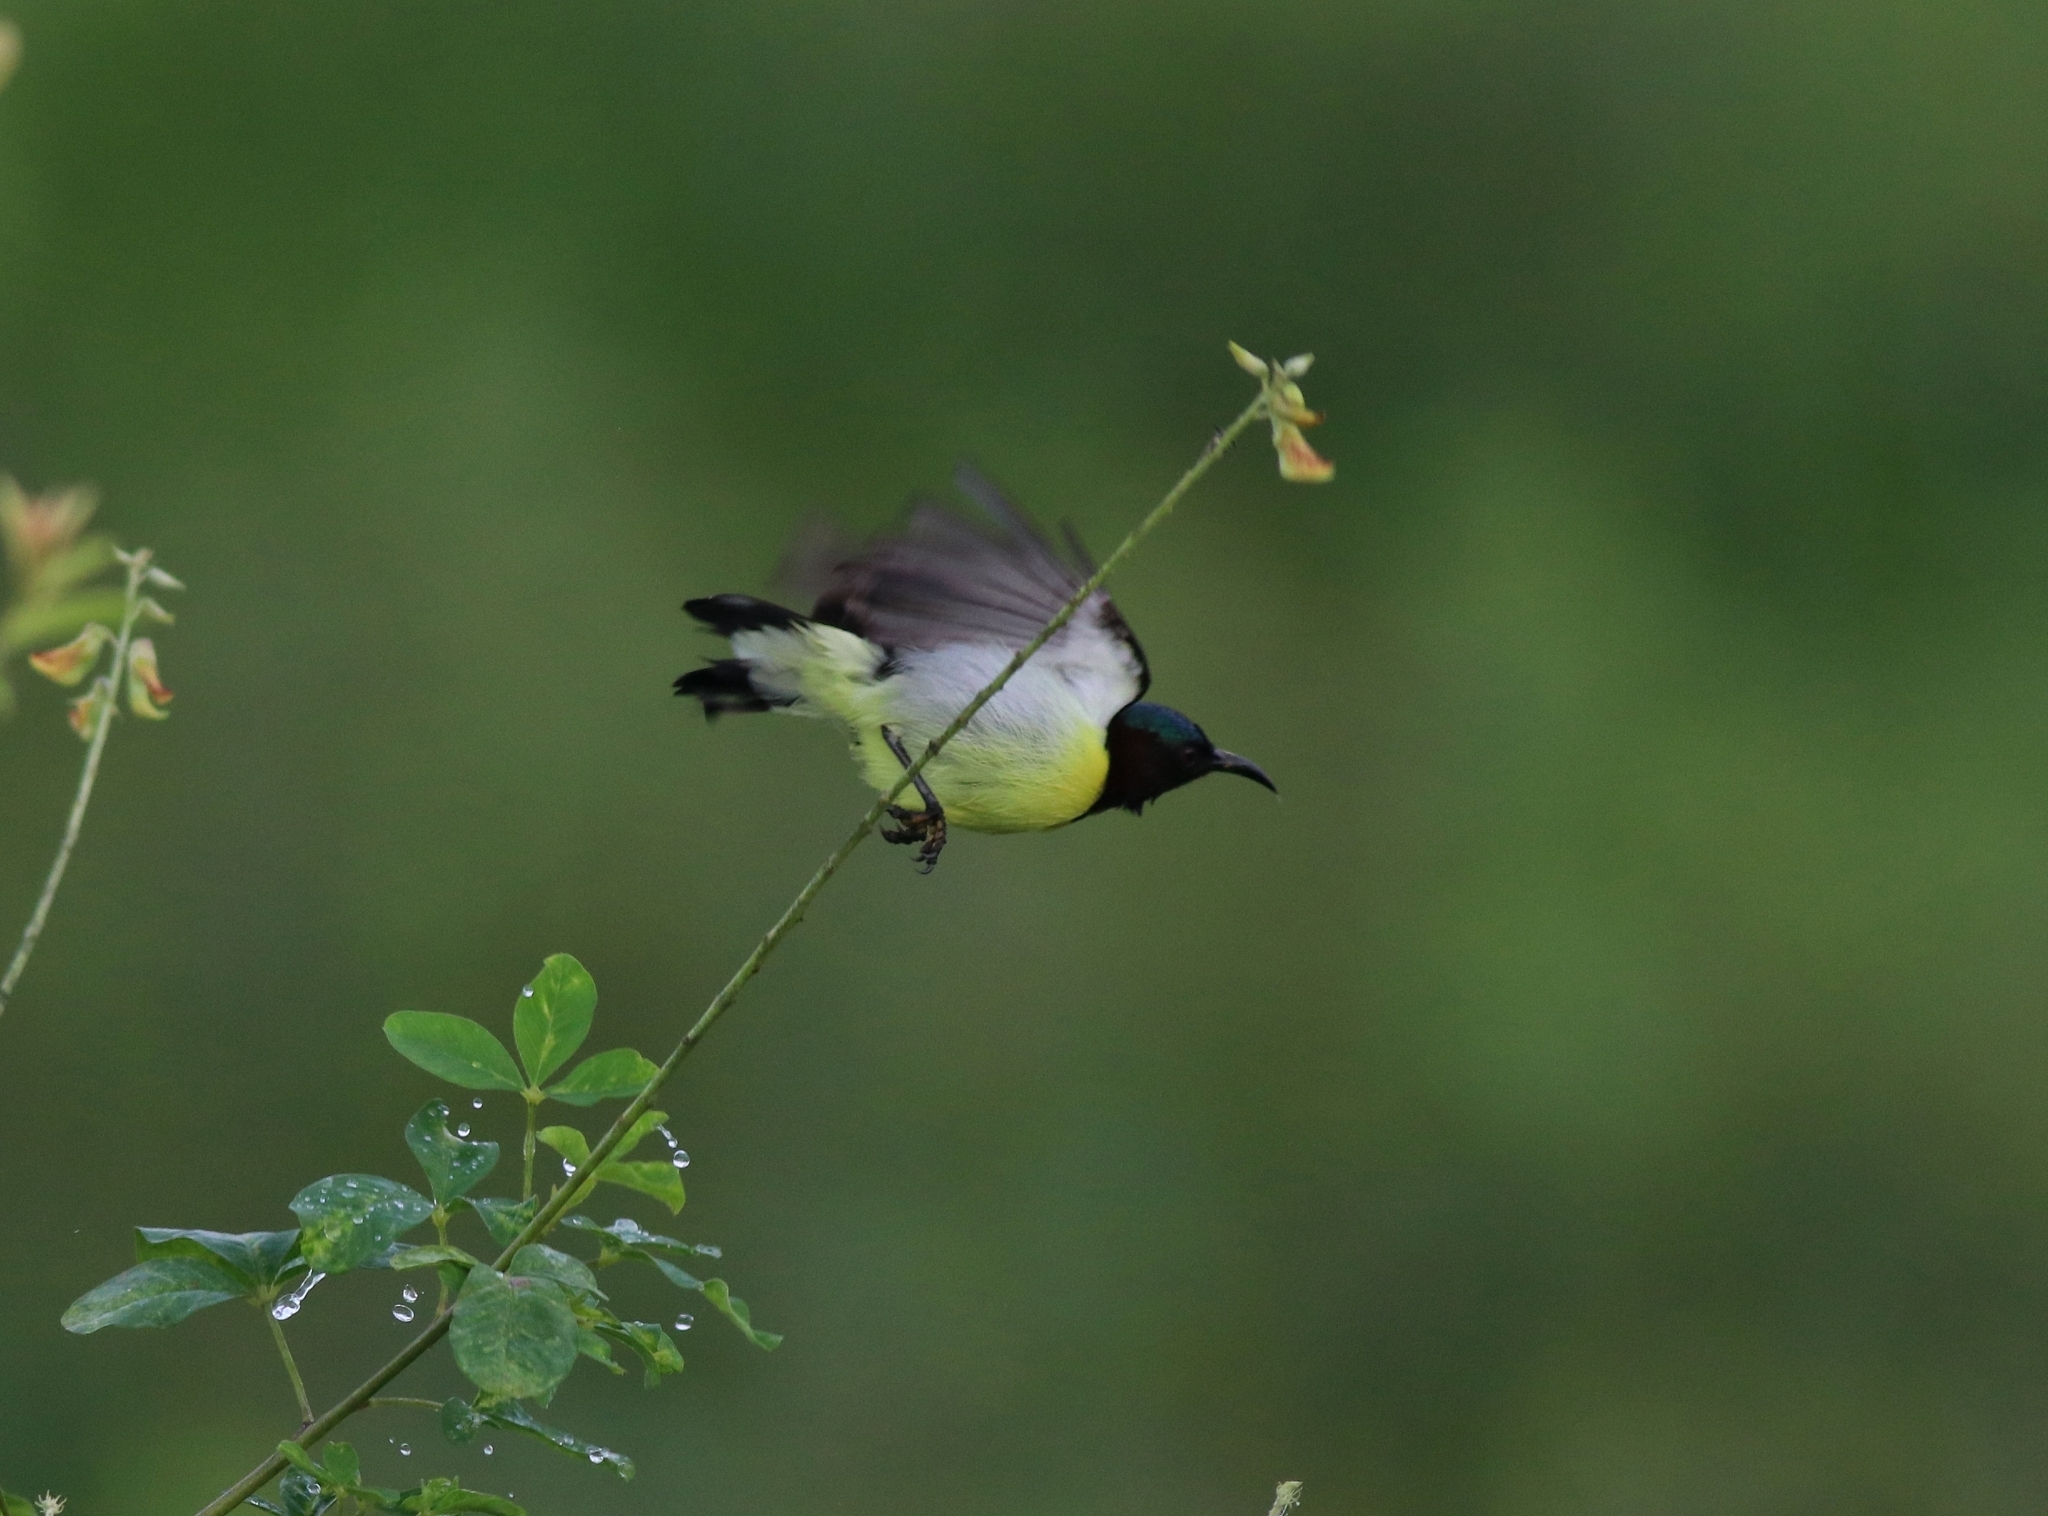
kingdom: Animalia
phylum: Chordata
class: Aves
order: Passeriformes
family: Nectariniidae
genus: Leptocoma
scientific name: Leptocoma zeylonica
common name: Purple-rumped sunbird
